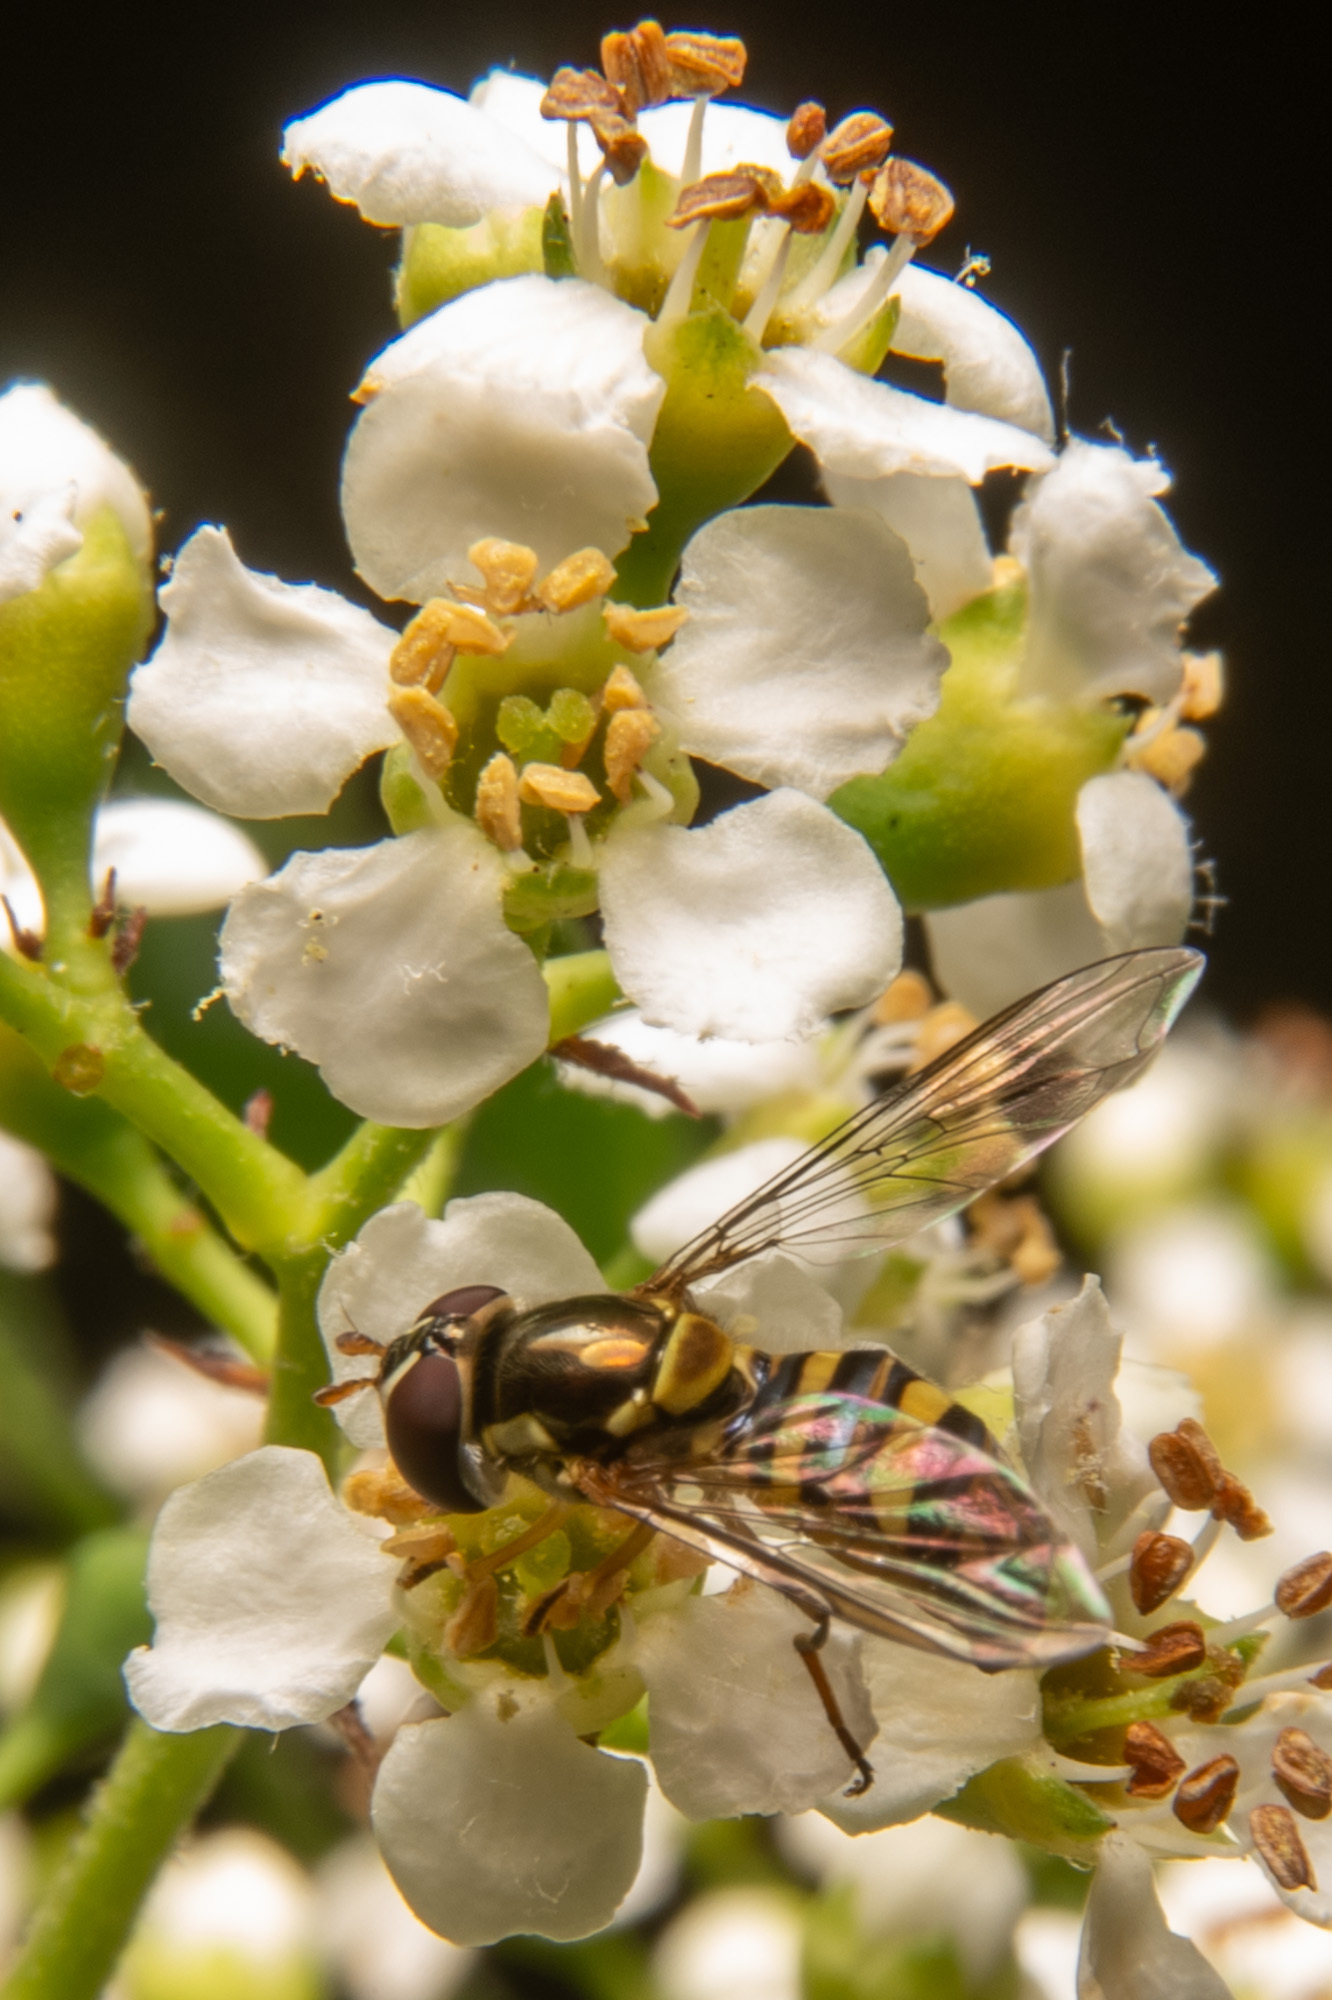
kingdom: Animalia
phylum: Arthropoda
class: Insecta
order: Diptera
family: Syrphidae
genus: Allograpta
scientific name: Allograpta obliqua
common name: Common oblique syrphid
